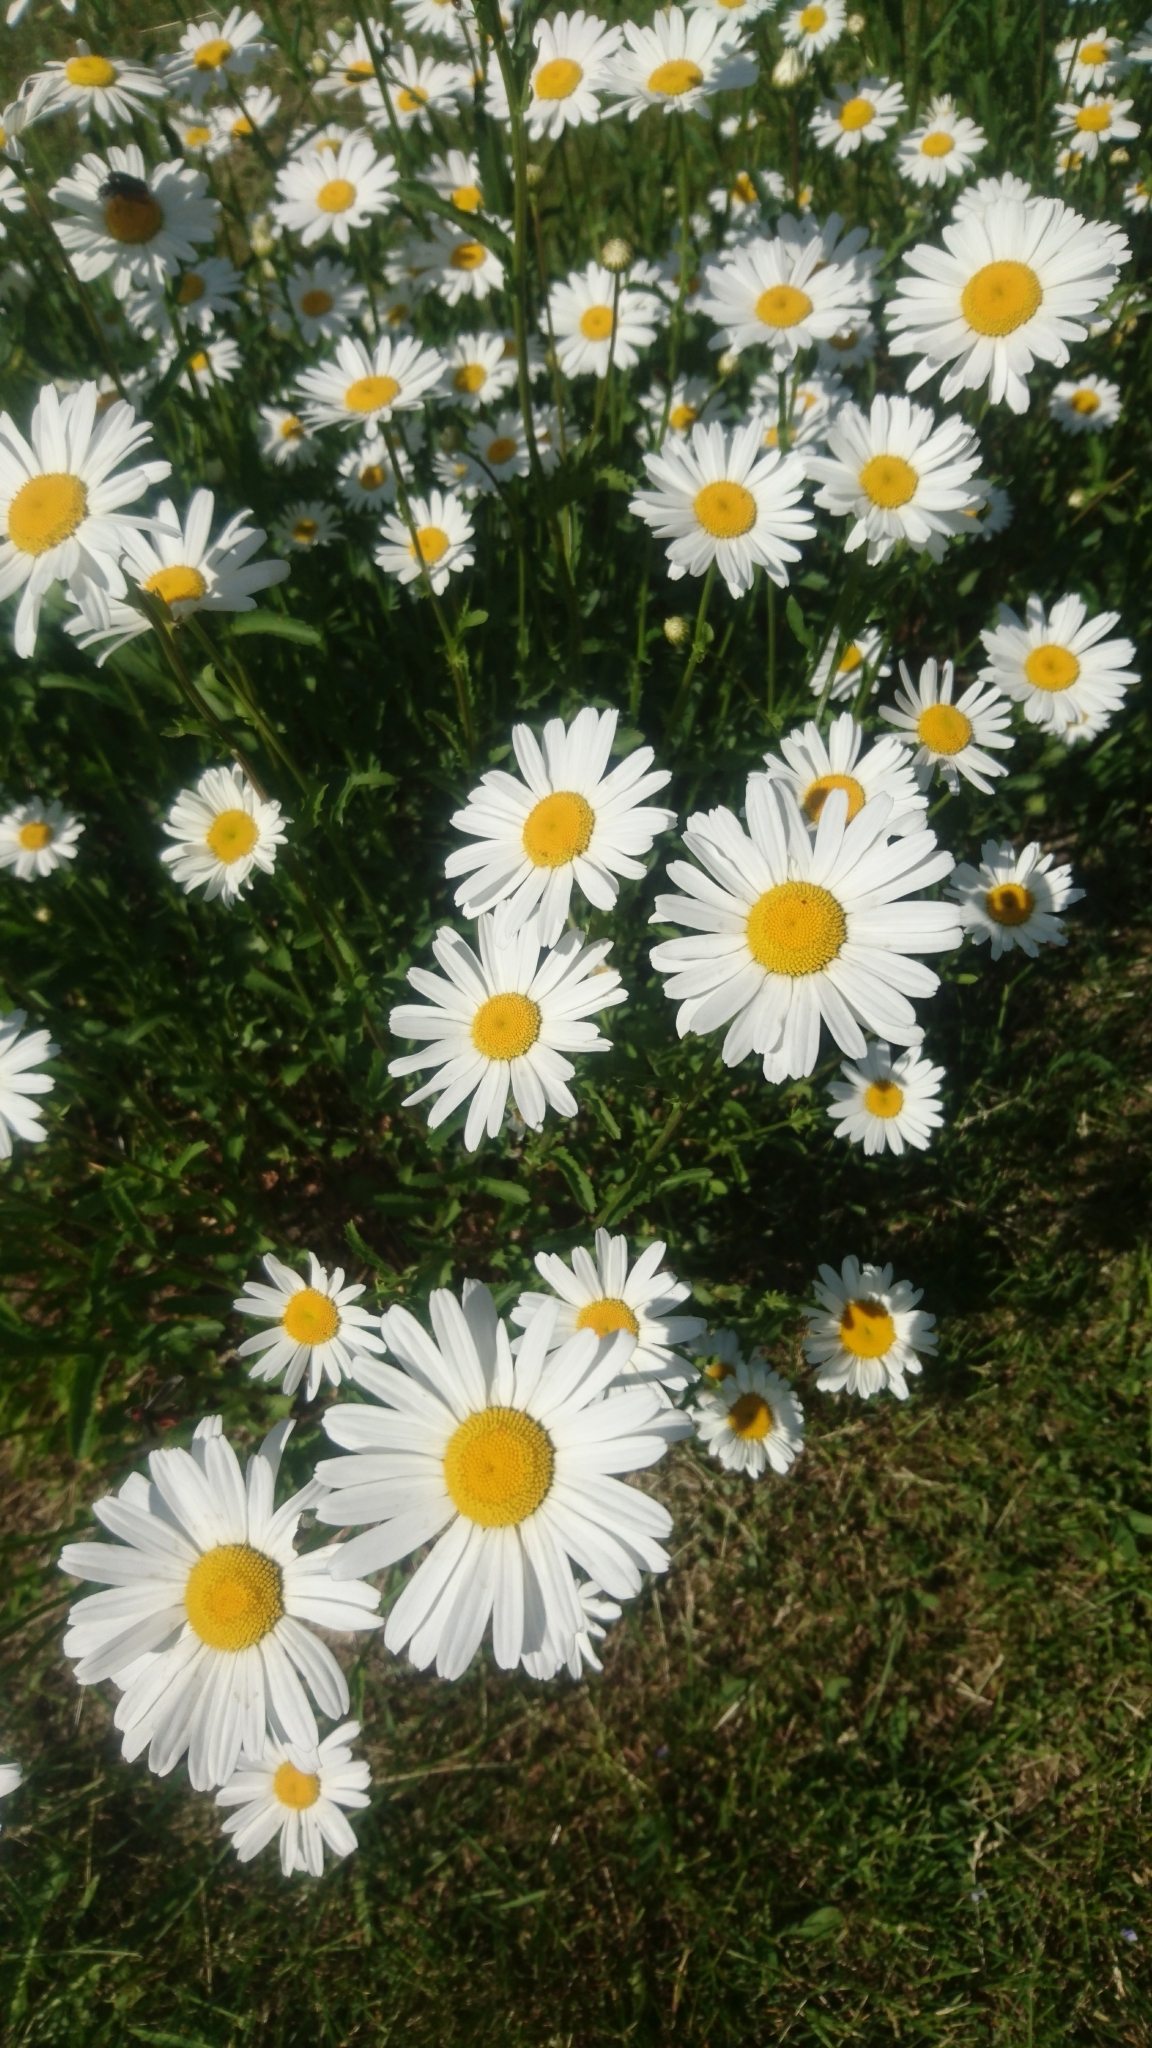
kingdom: Plantae
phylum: Tracheophyta
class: Magnoliopsida
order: Asterales
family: Asteraceae
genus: Leucanthemum
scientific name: Leucanthemum vulgare
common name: Oxeye daisy
